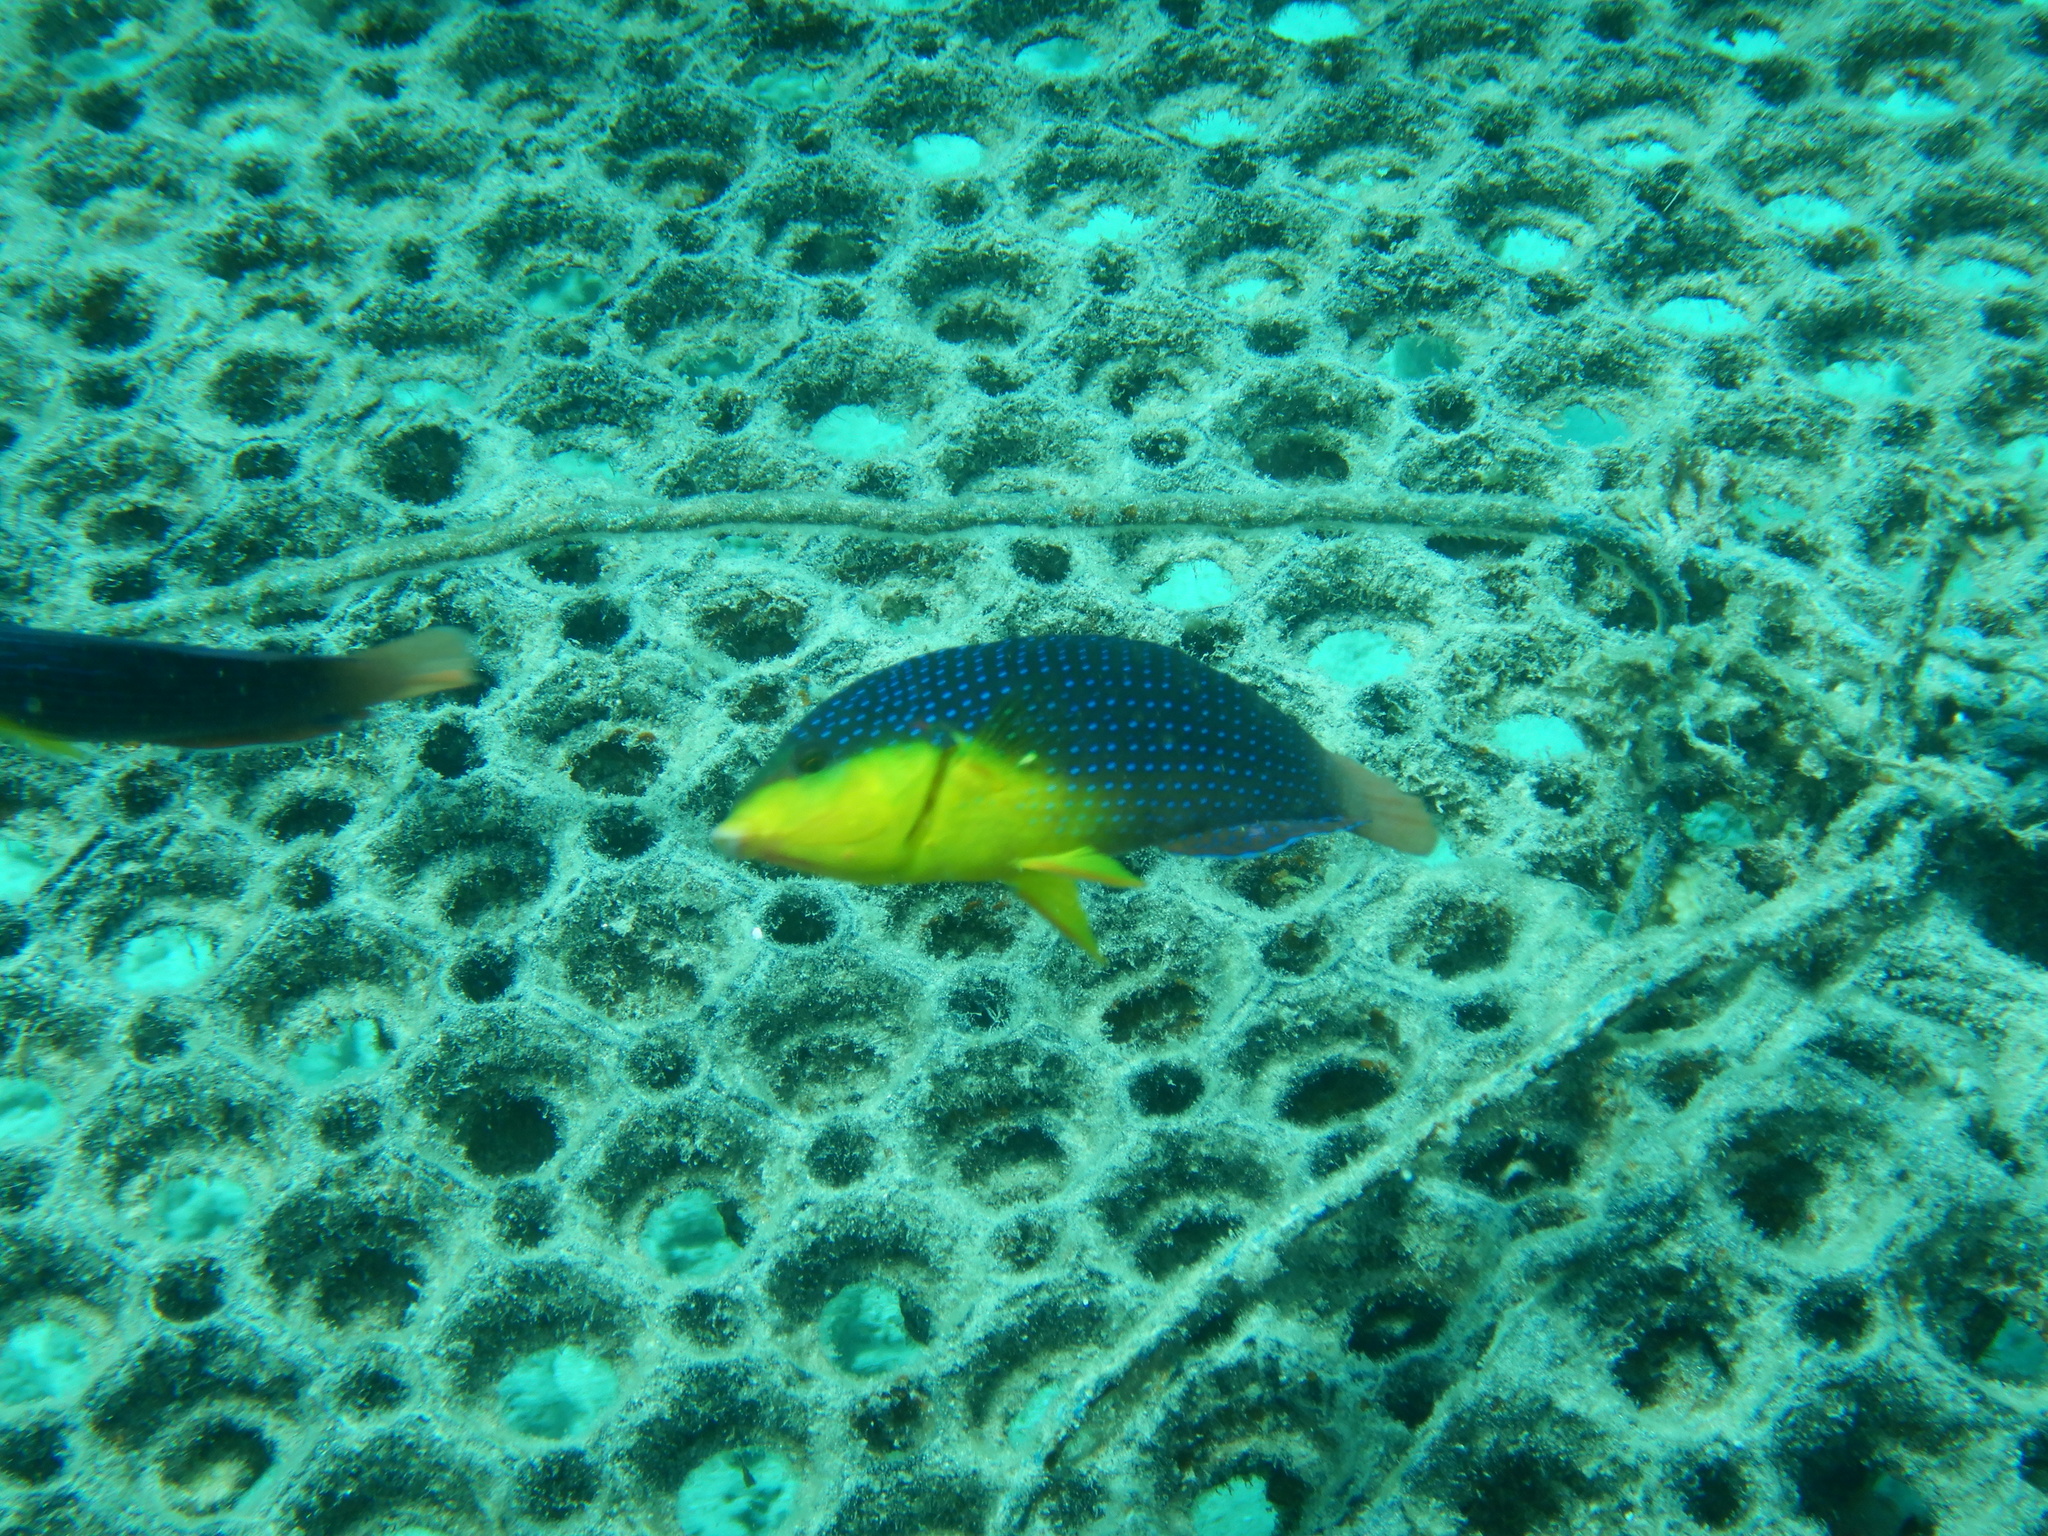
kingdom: Animalia
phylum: Chordata
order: Perciformes
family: Labridae
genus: Anampses
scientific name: Anampses twistii
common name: Yellowbreasted wrasse
